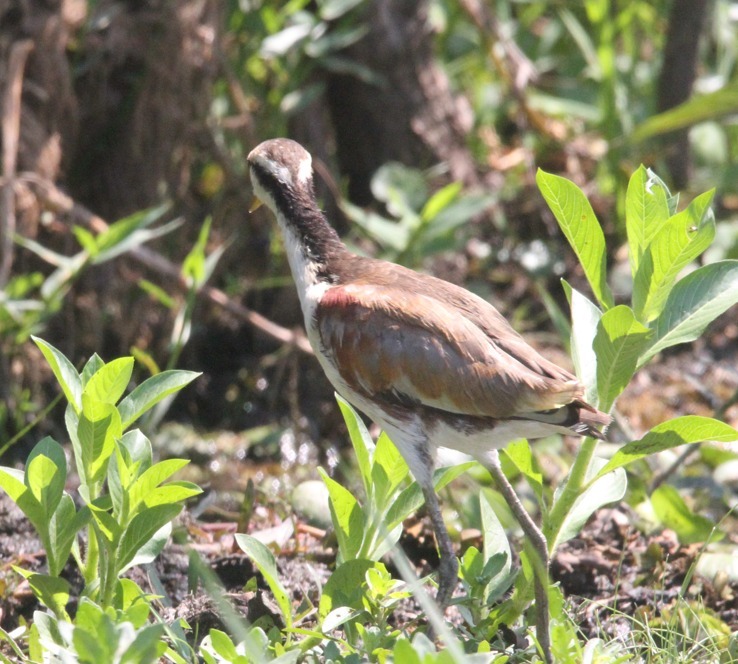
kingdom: Animalia
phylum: Chordata
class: Aves
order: Charadriiformes
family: Jacanidae
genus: Jacana
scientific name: Jacana jacana
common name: Wattled jacana
